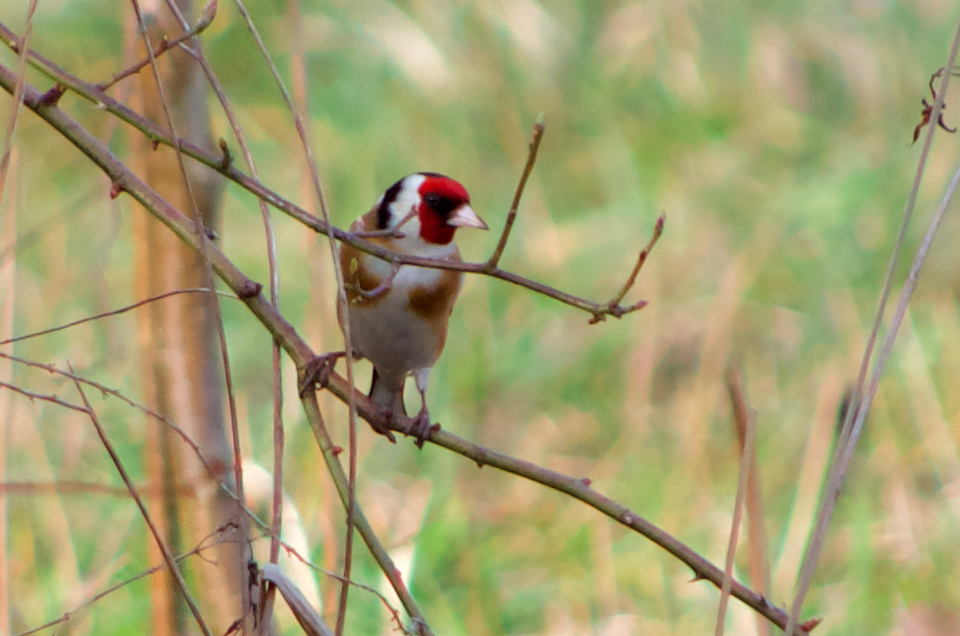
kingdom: Animalia
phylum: Chordata
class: Aves
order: Passeriformes
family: Fringillidae
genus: Carduelis
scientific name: Carduelis carduelis
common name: European goldfinch
